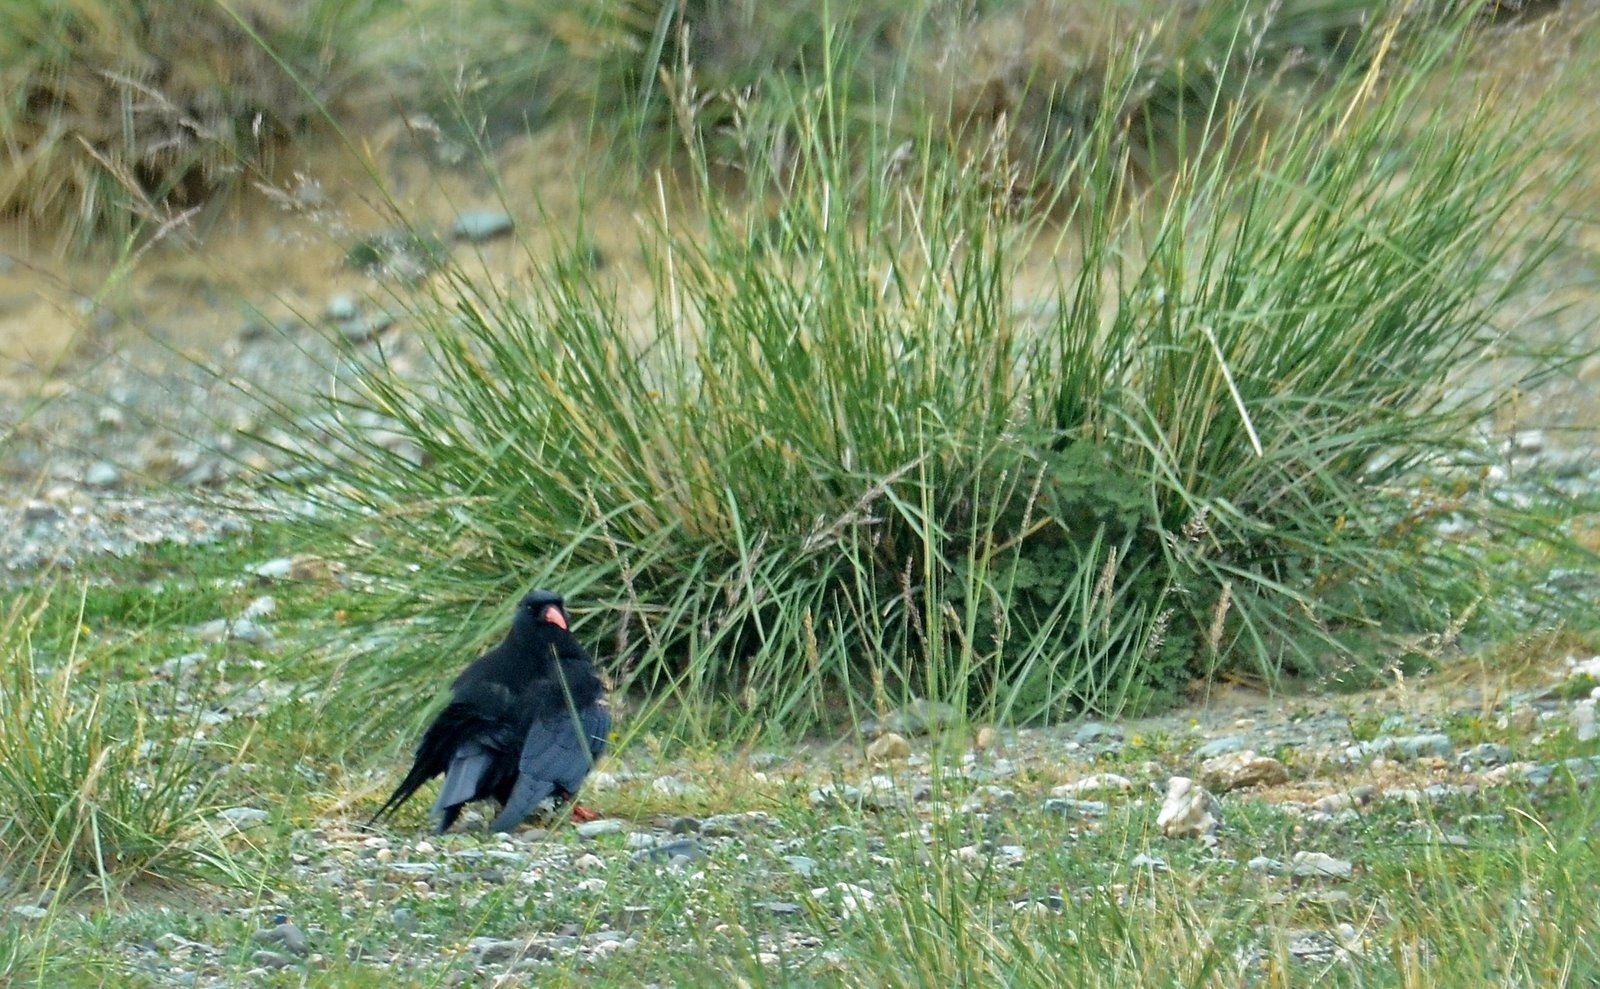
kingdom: Animalia
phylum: Chordata
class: Aves
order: Passeriformes
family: Corvidae
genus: Pyrrhocorax
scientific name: Pyrrhocorax pyrrhocorax
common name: Red-billed chough
